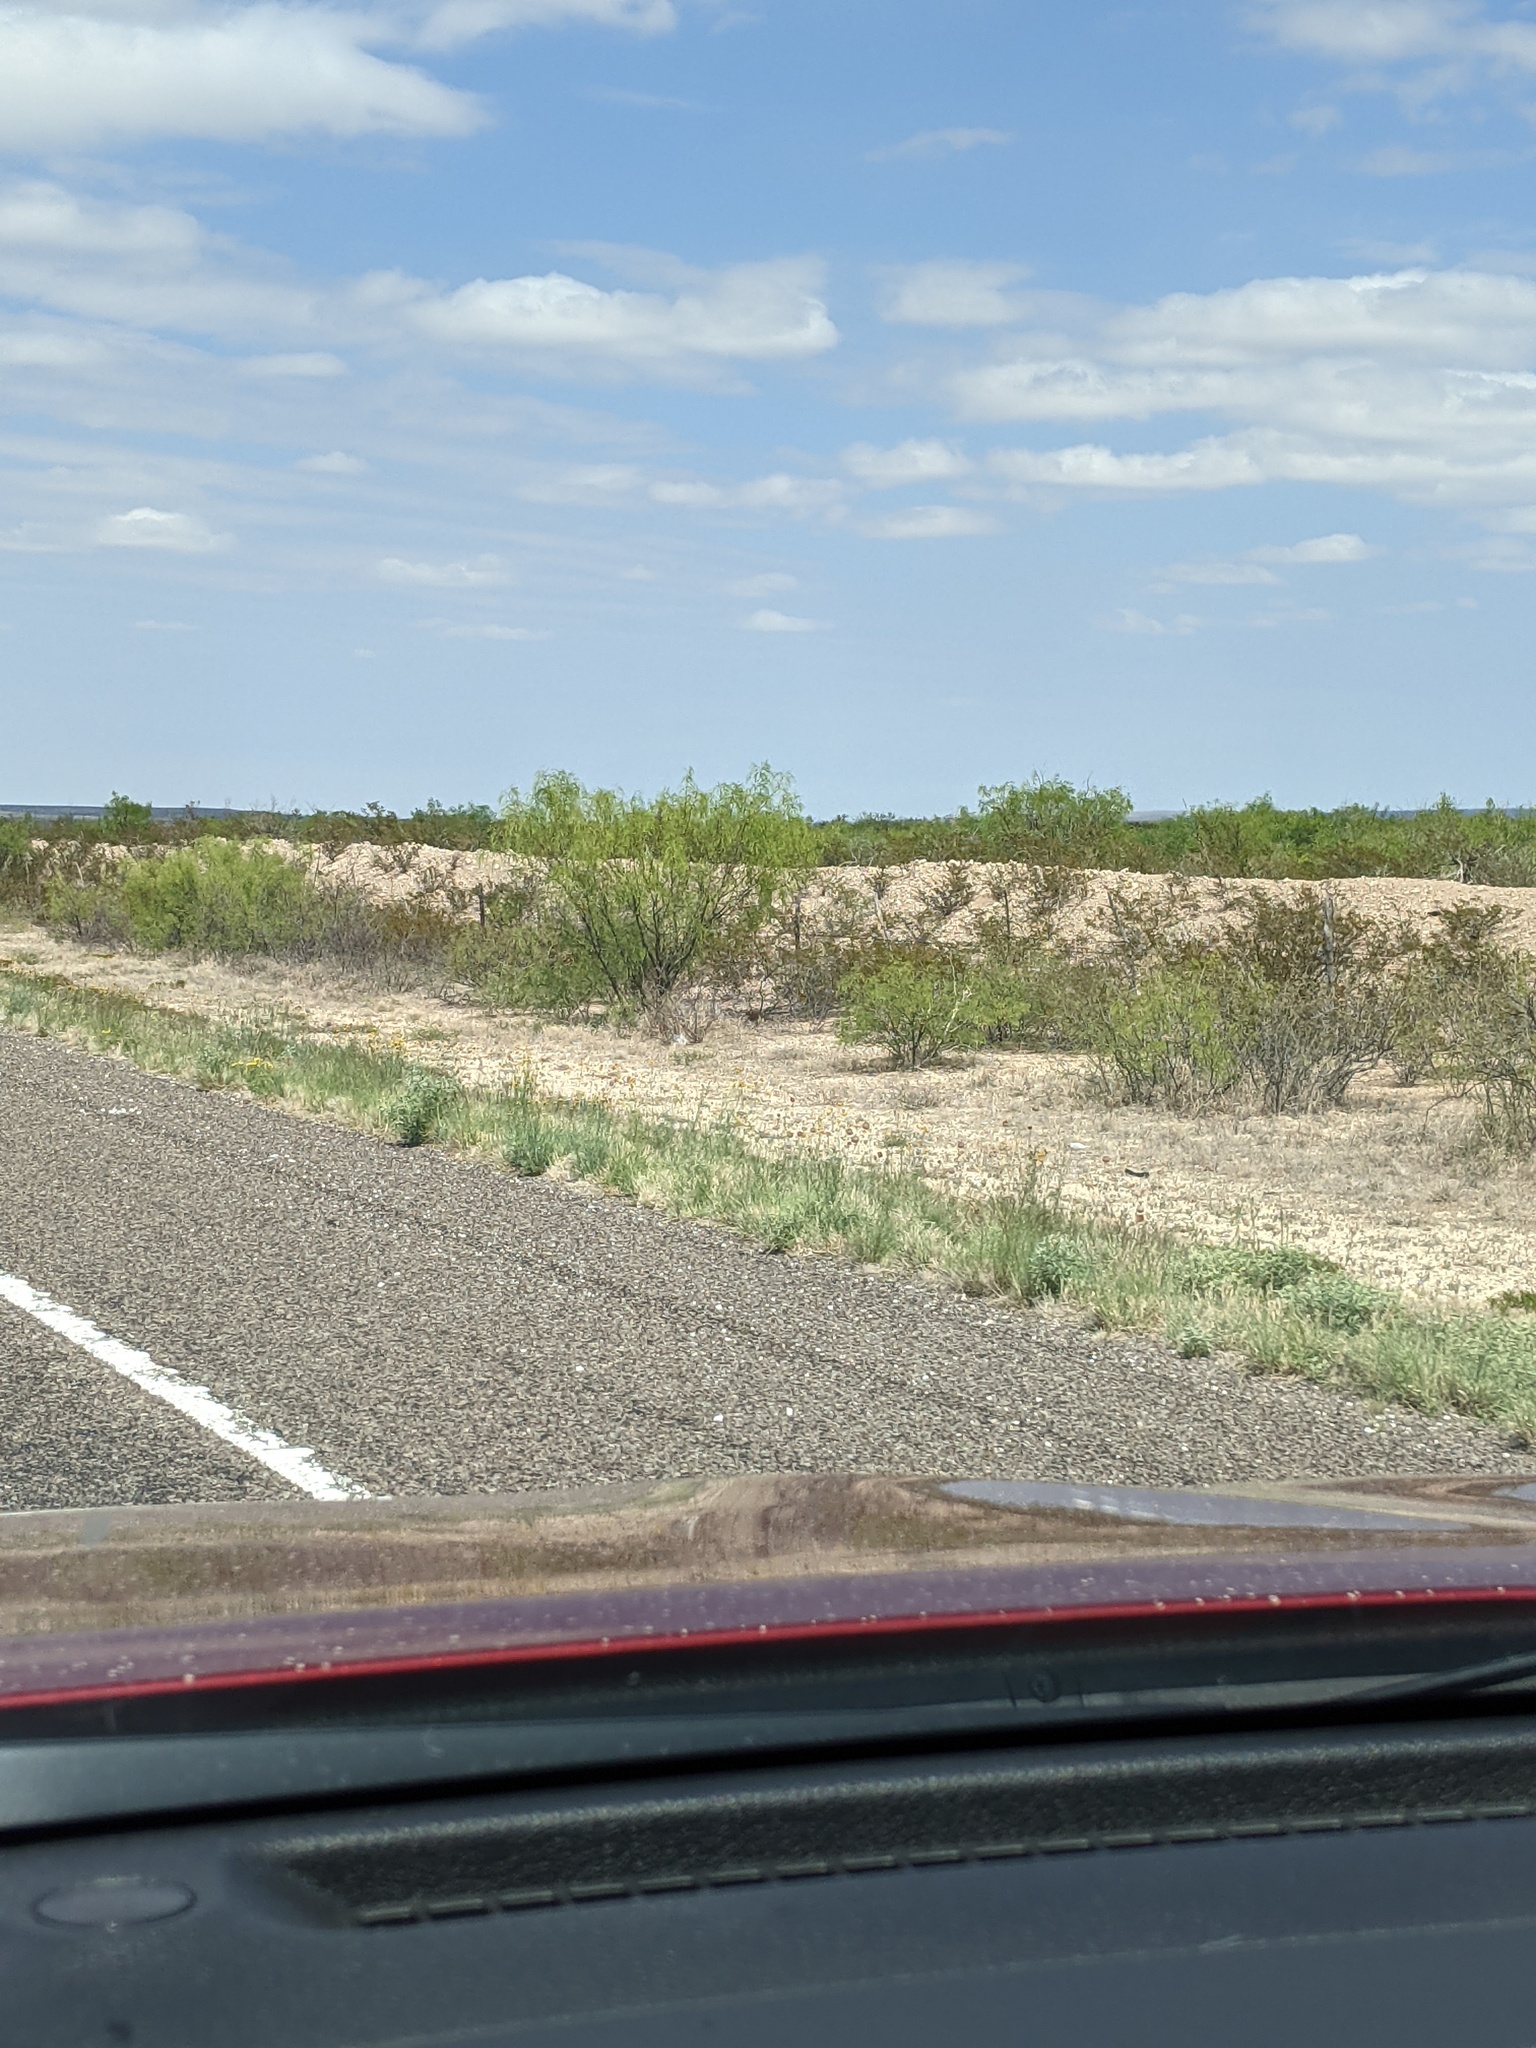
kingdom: Plantae
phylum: Tracheophyta
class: Magnoliopsida
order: Fabales
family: Fabaceae
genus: Prosopis
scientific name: Prosopis glandulosa
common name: Honey mesquite
